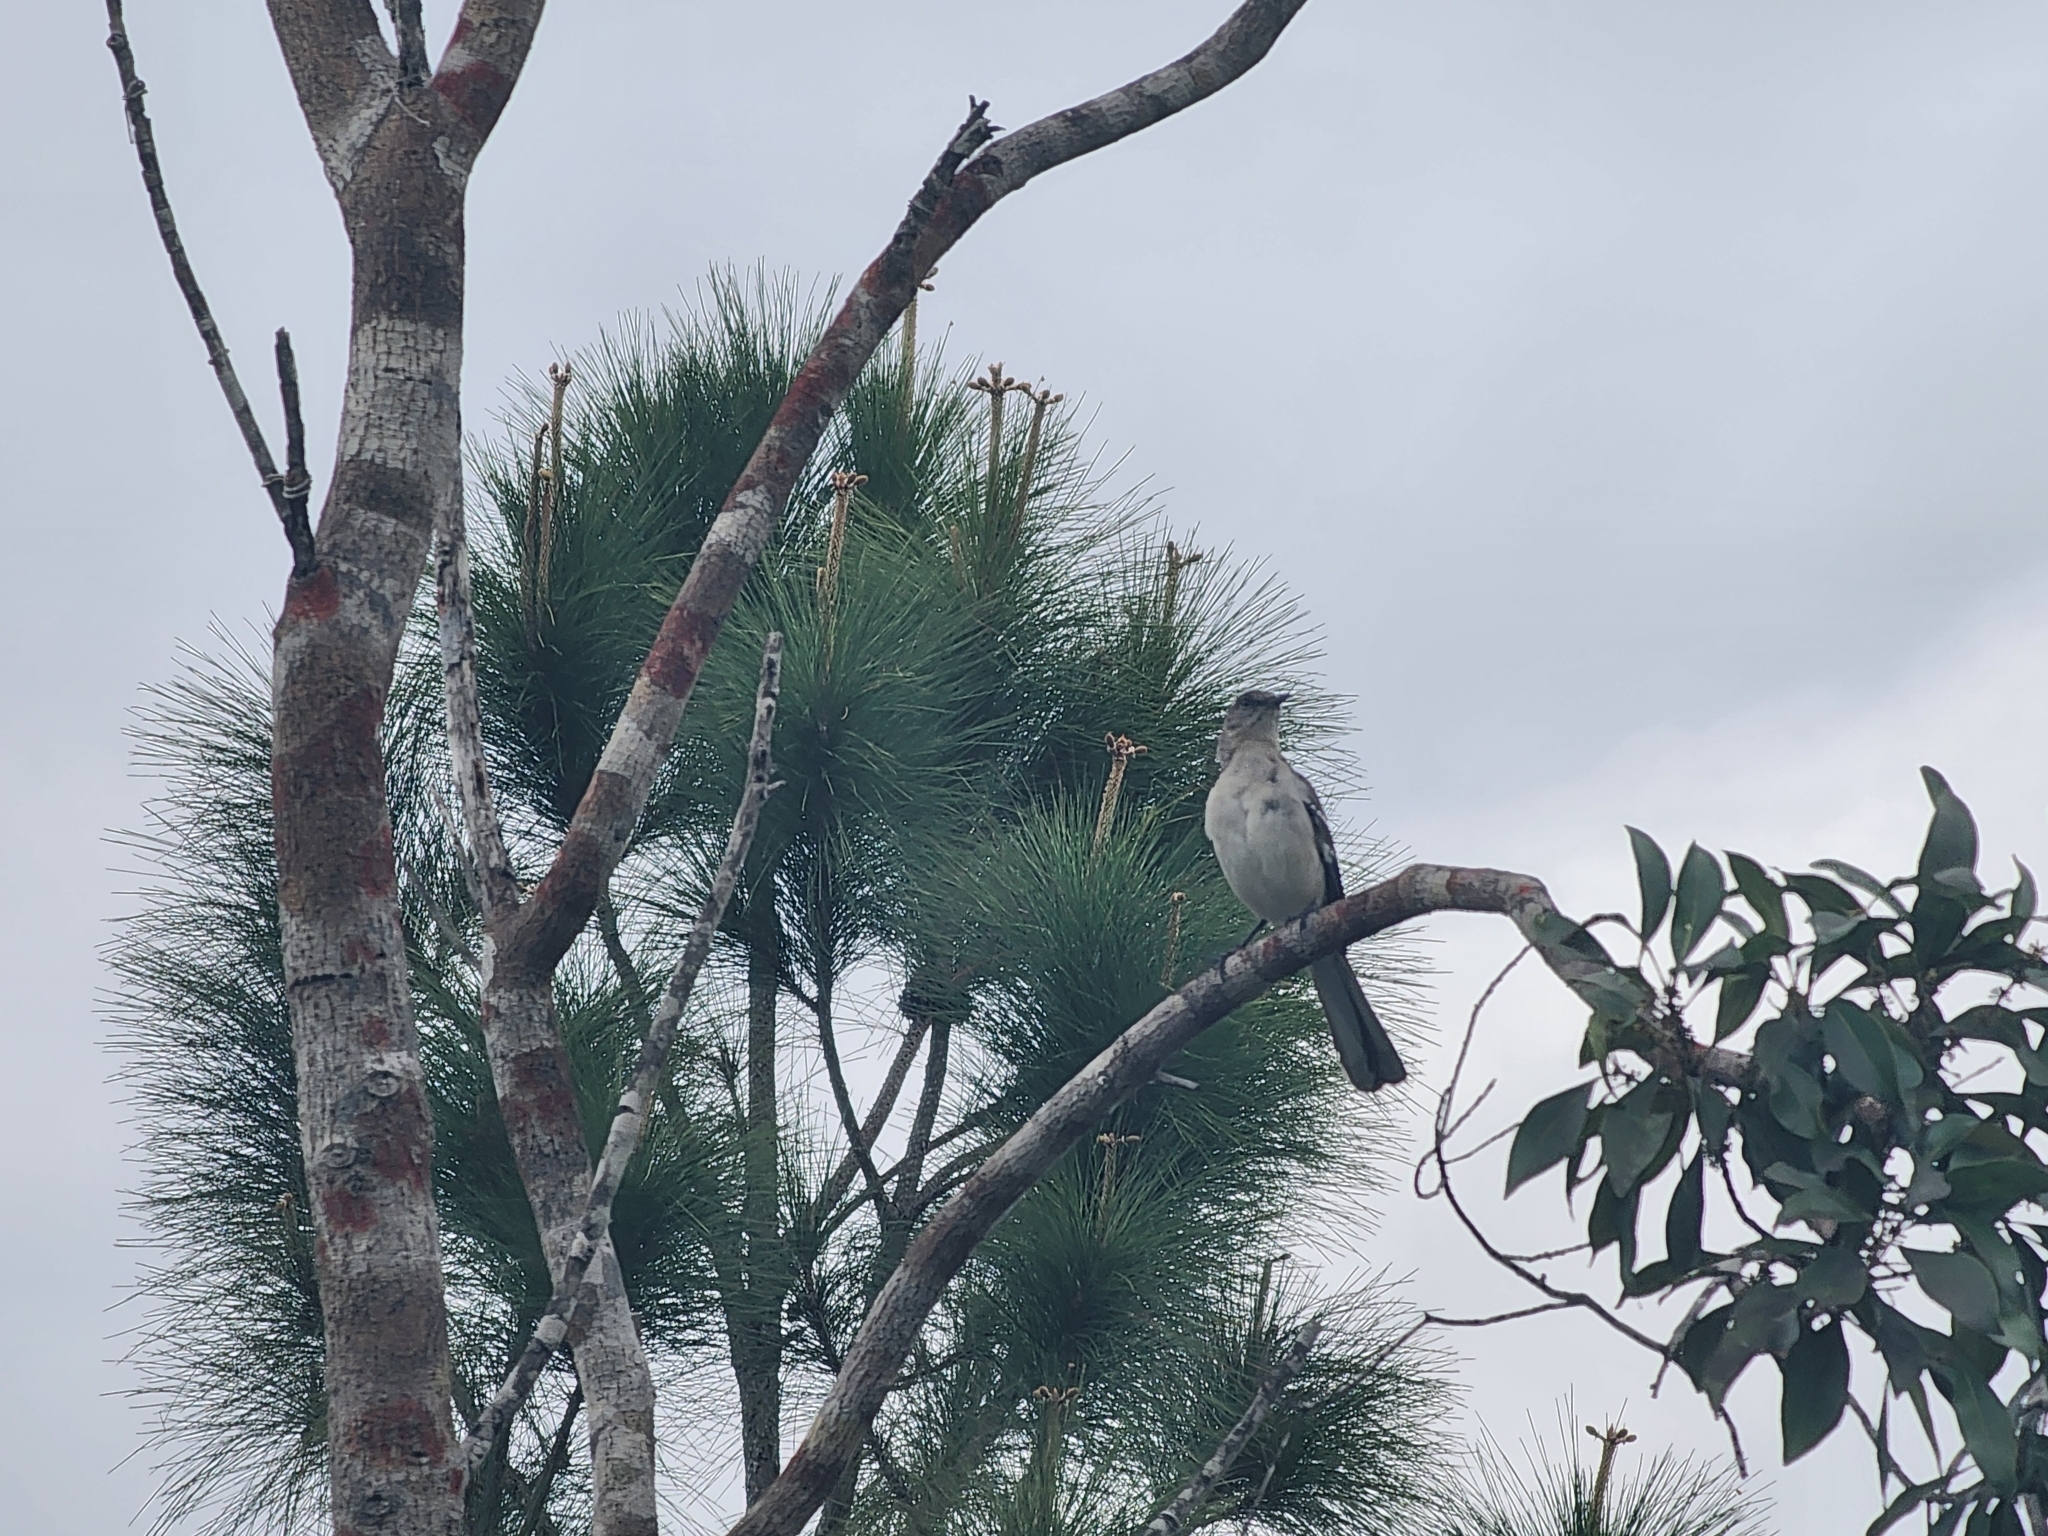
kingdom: Animalia
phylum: Chordata
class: Aves
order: Passeriformes
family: Mimidae
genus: Mimus
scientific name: Mimus polyglottos
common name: Northern mockingbird
